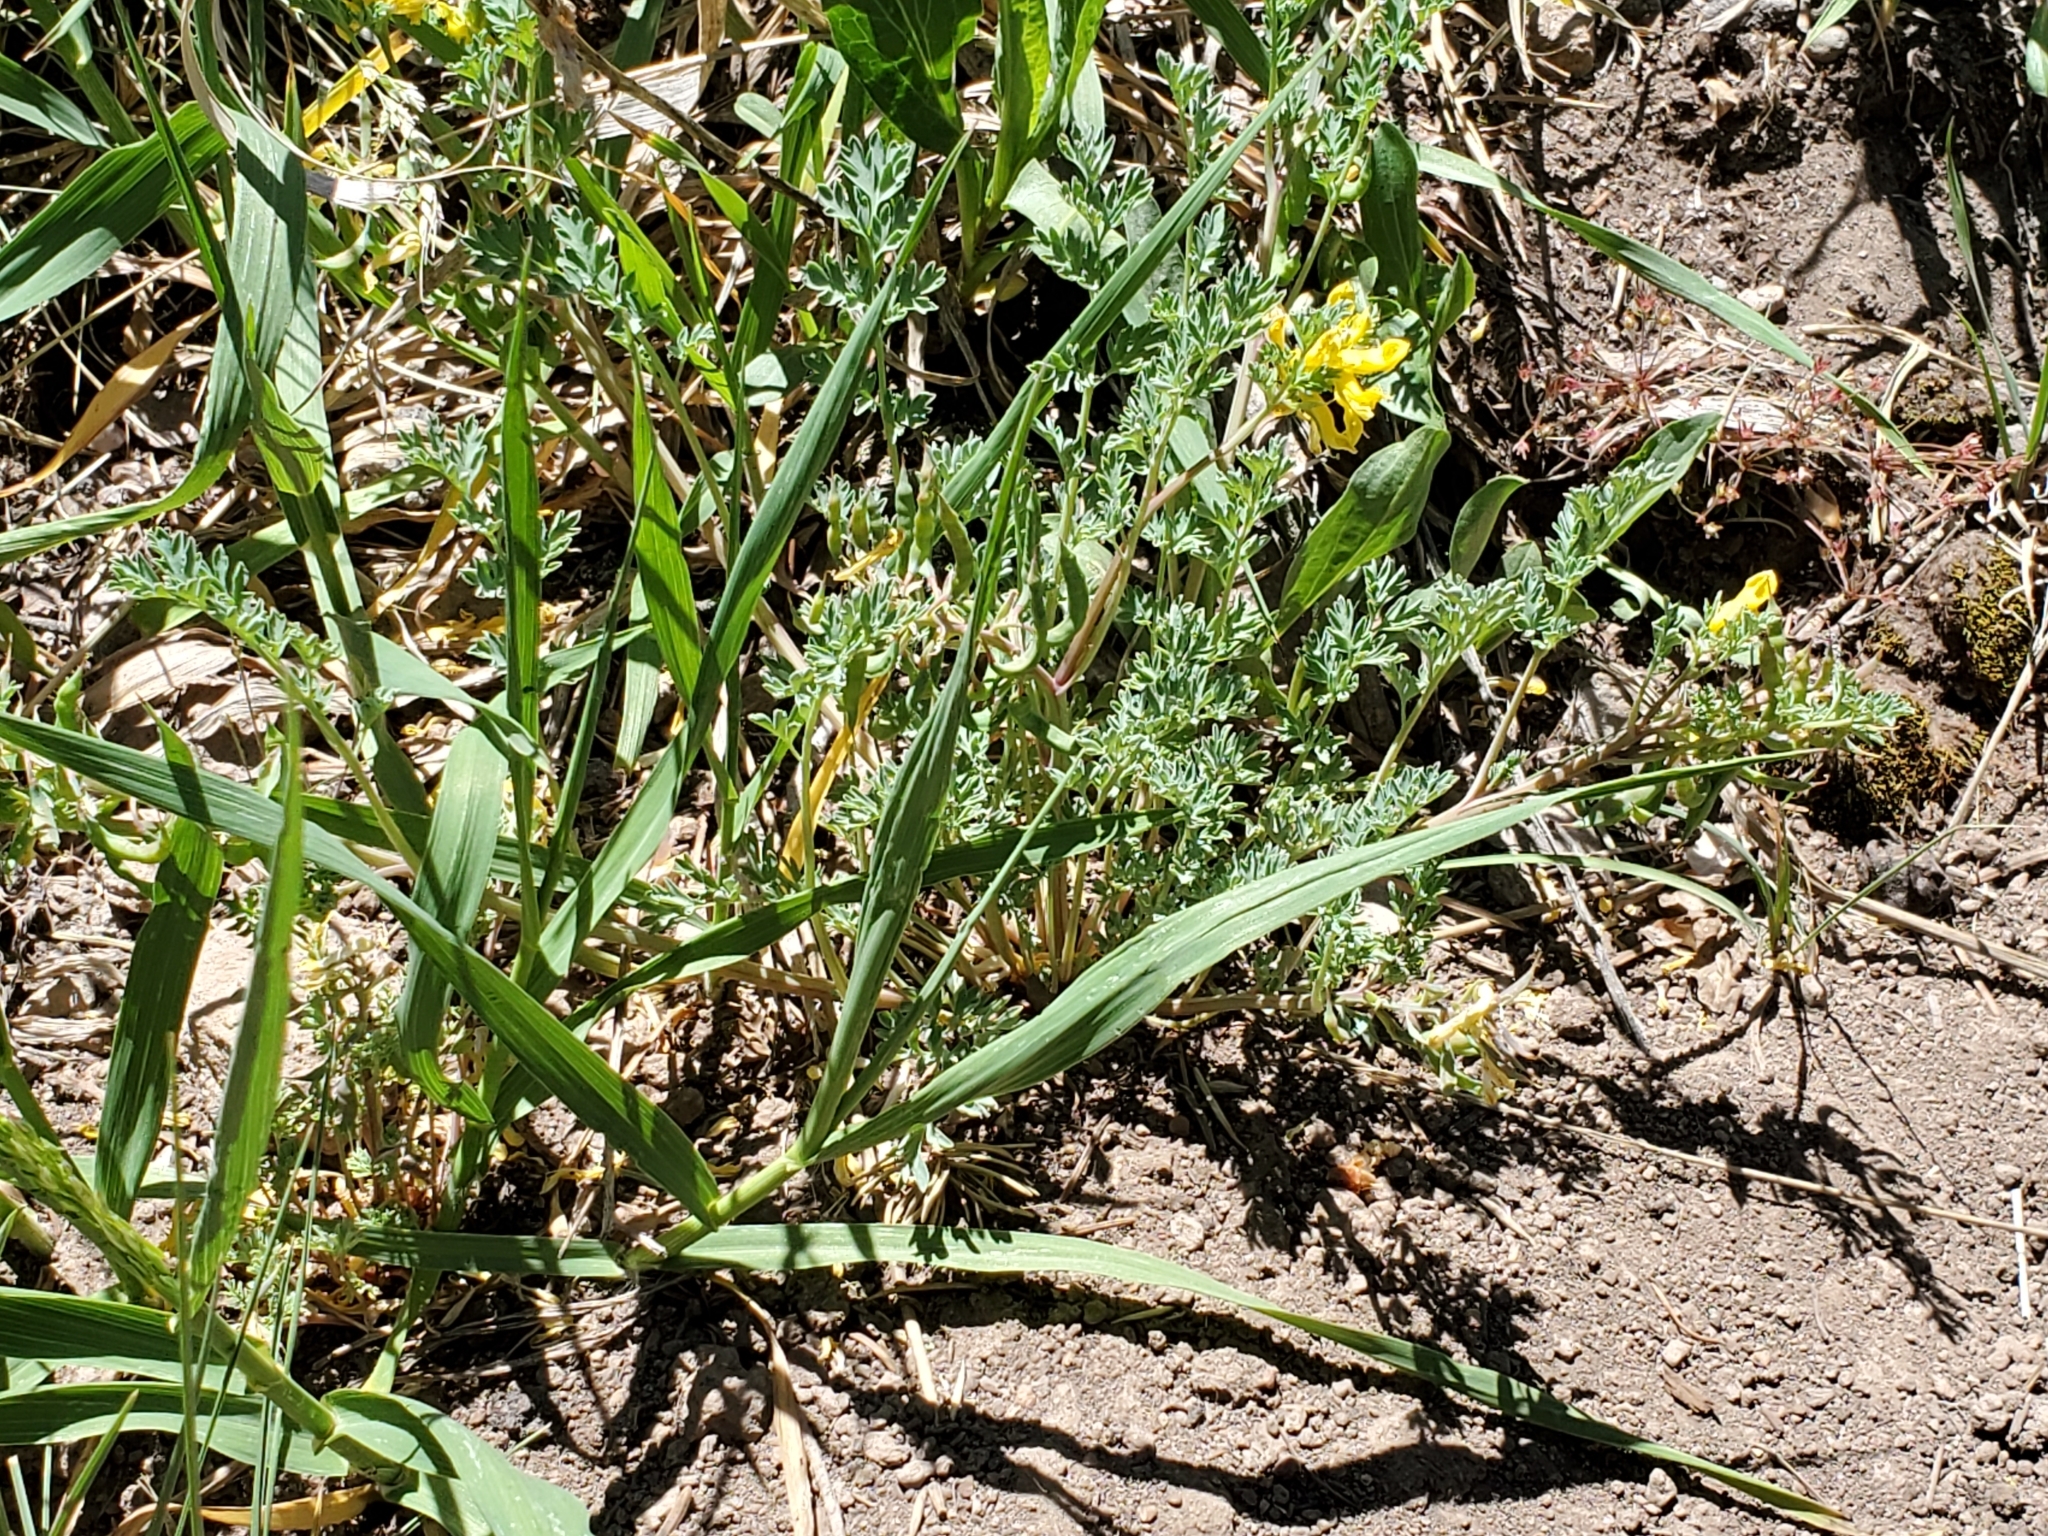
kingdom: Plantae
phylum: Tracheophyta
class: Magnoliopsida
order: Ranunculales
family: Papaveraceae
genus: Corydalis
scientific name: Corydalis aurea
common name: Golden corydalis
